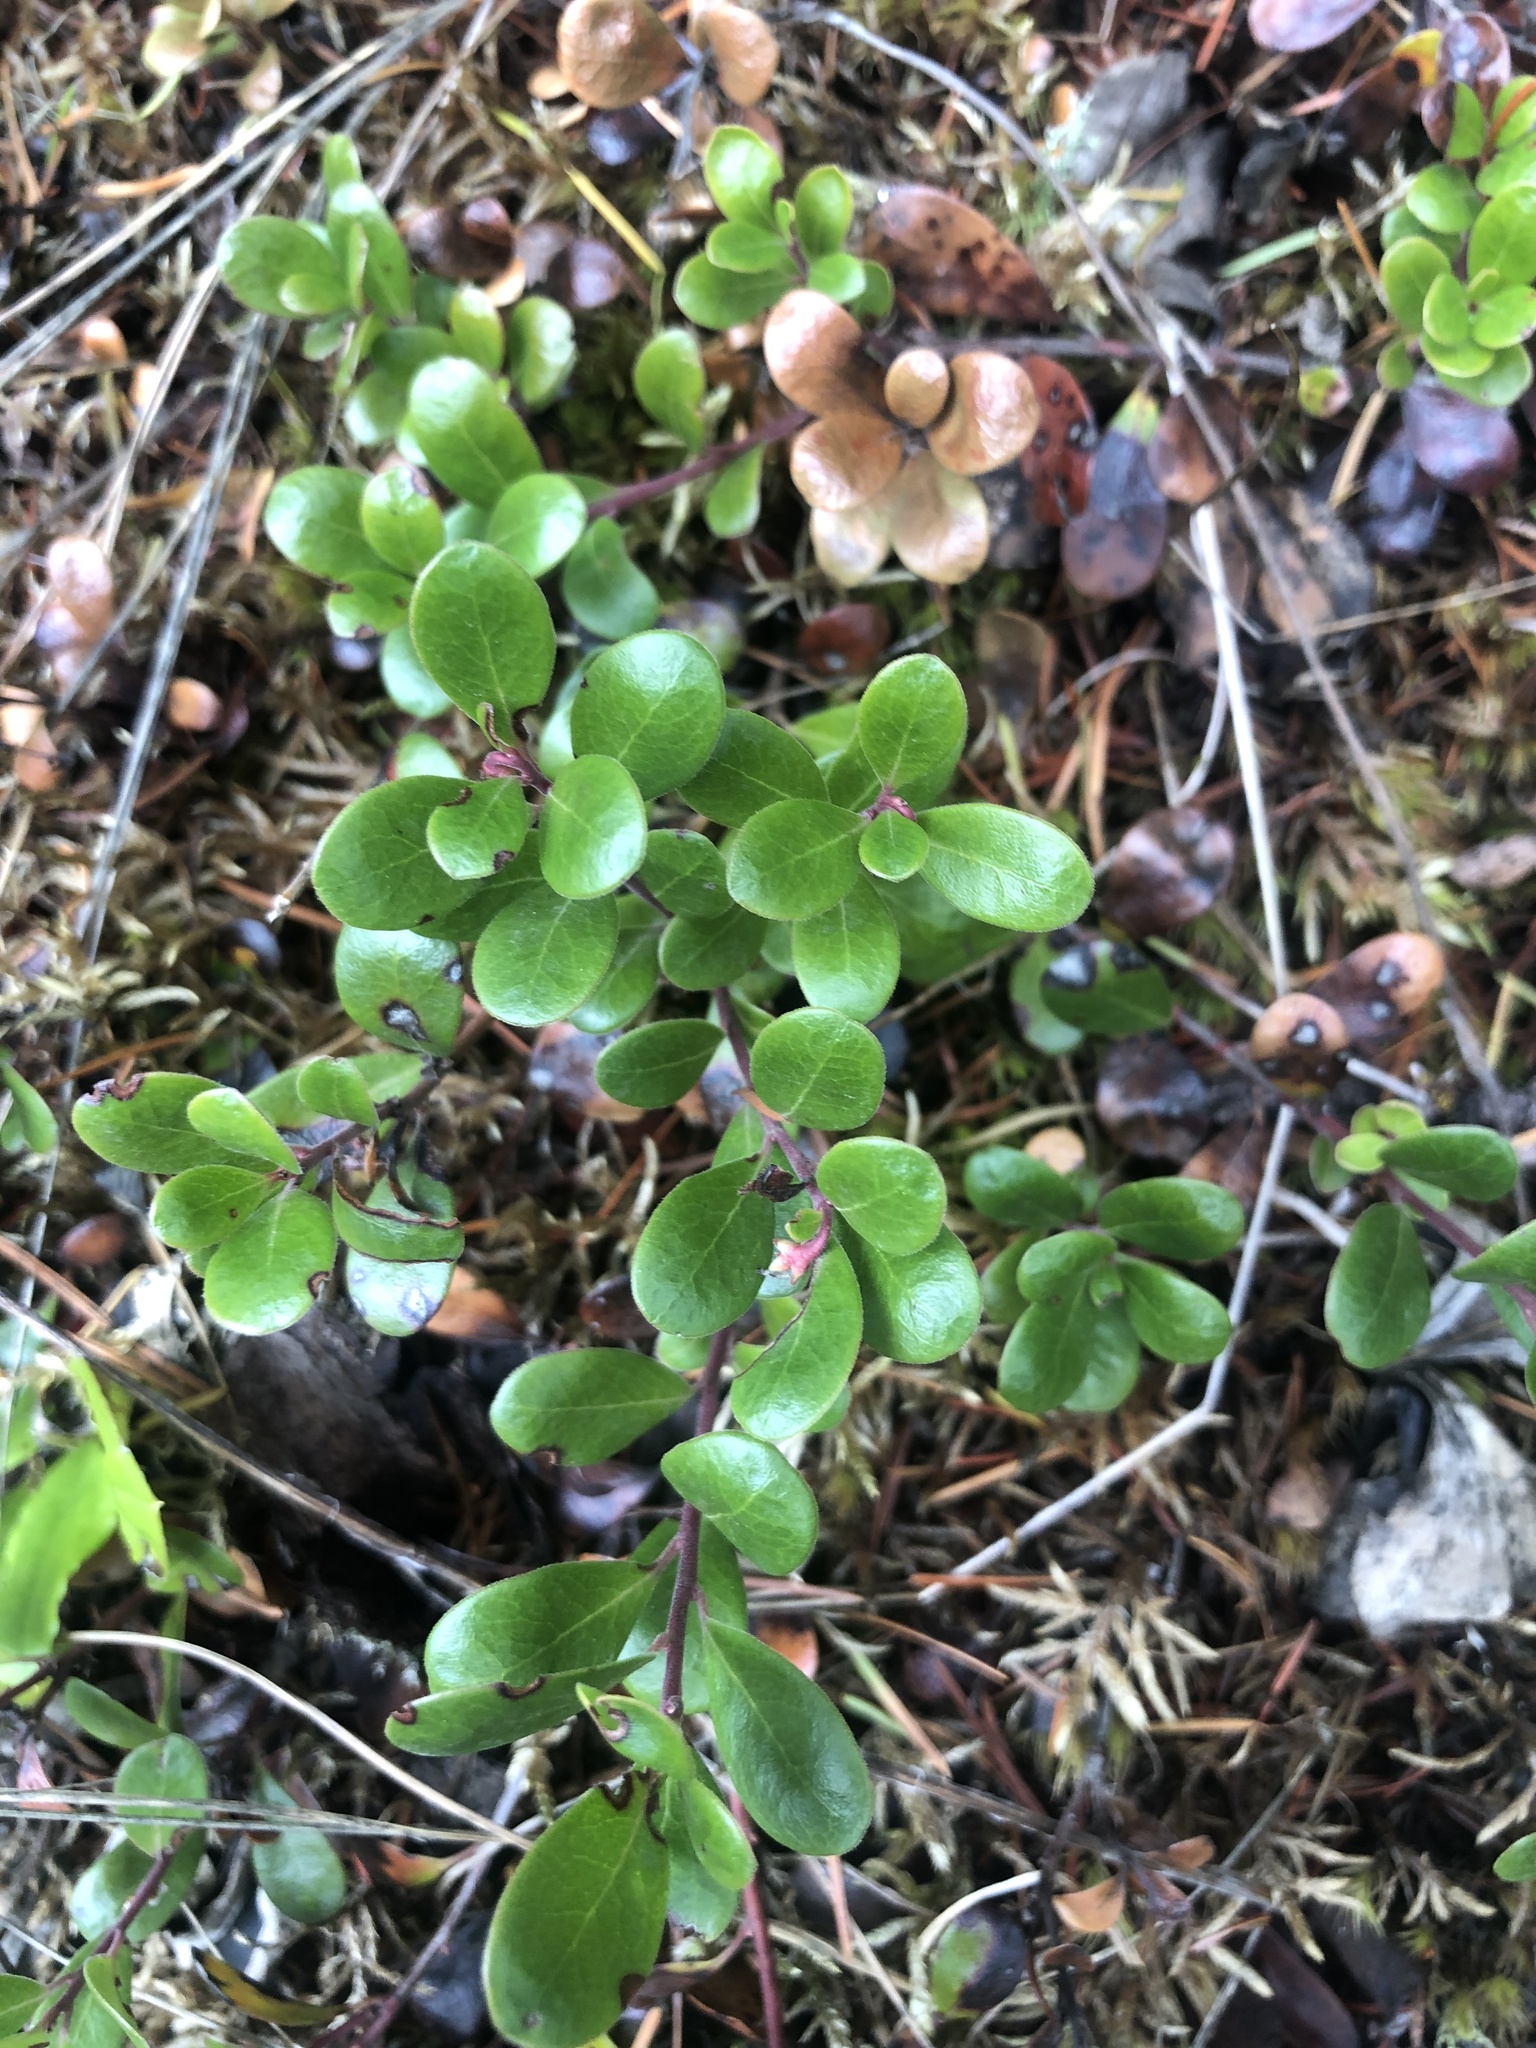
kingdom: Plantae
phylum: Tracheophyta
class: Magnoliopsida
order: Ericales
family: Ericaceae
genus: Arctostaphylos
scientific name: Arctostaphylos uva-ursi
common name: Bearberry
